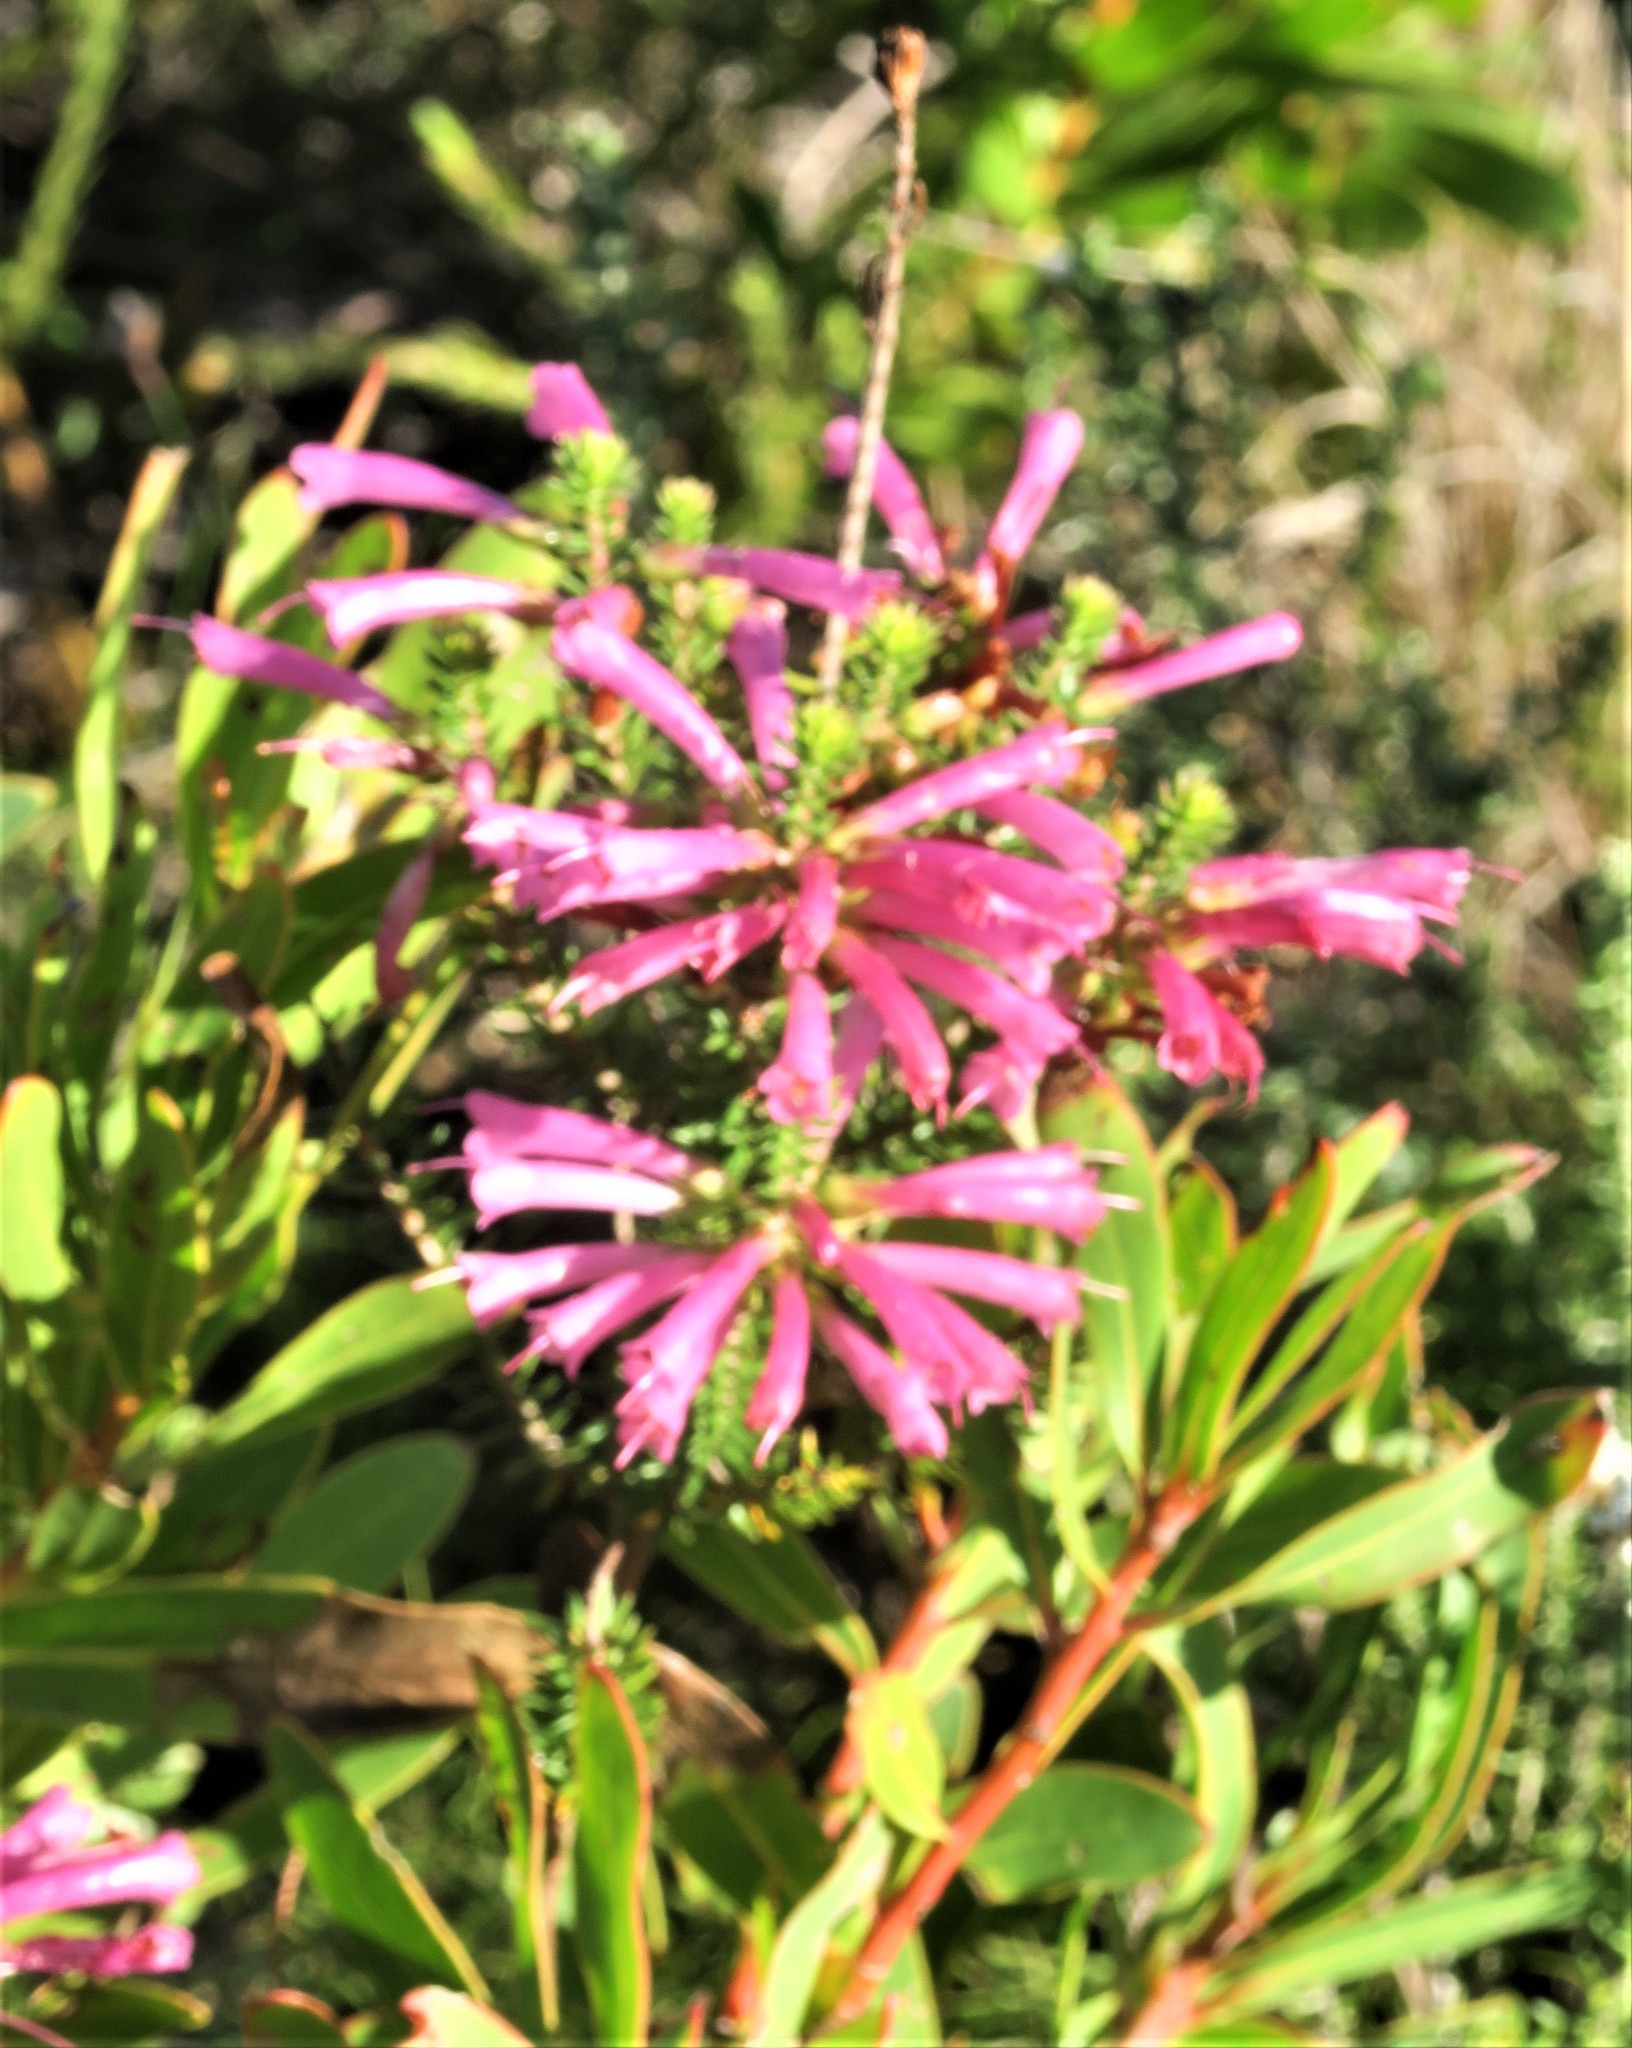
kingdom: Plantae
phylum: Tracheophyta
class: Magnoliopsida
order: Ericales
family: Ericaceae
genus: Erica
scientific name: Erica abietina
